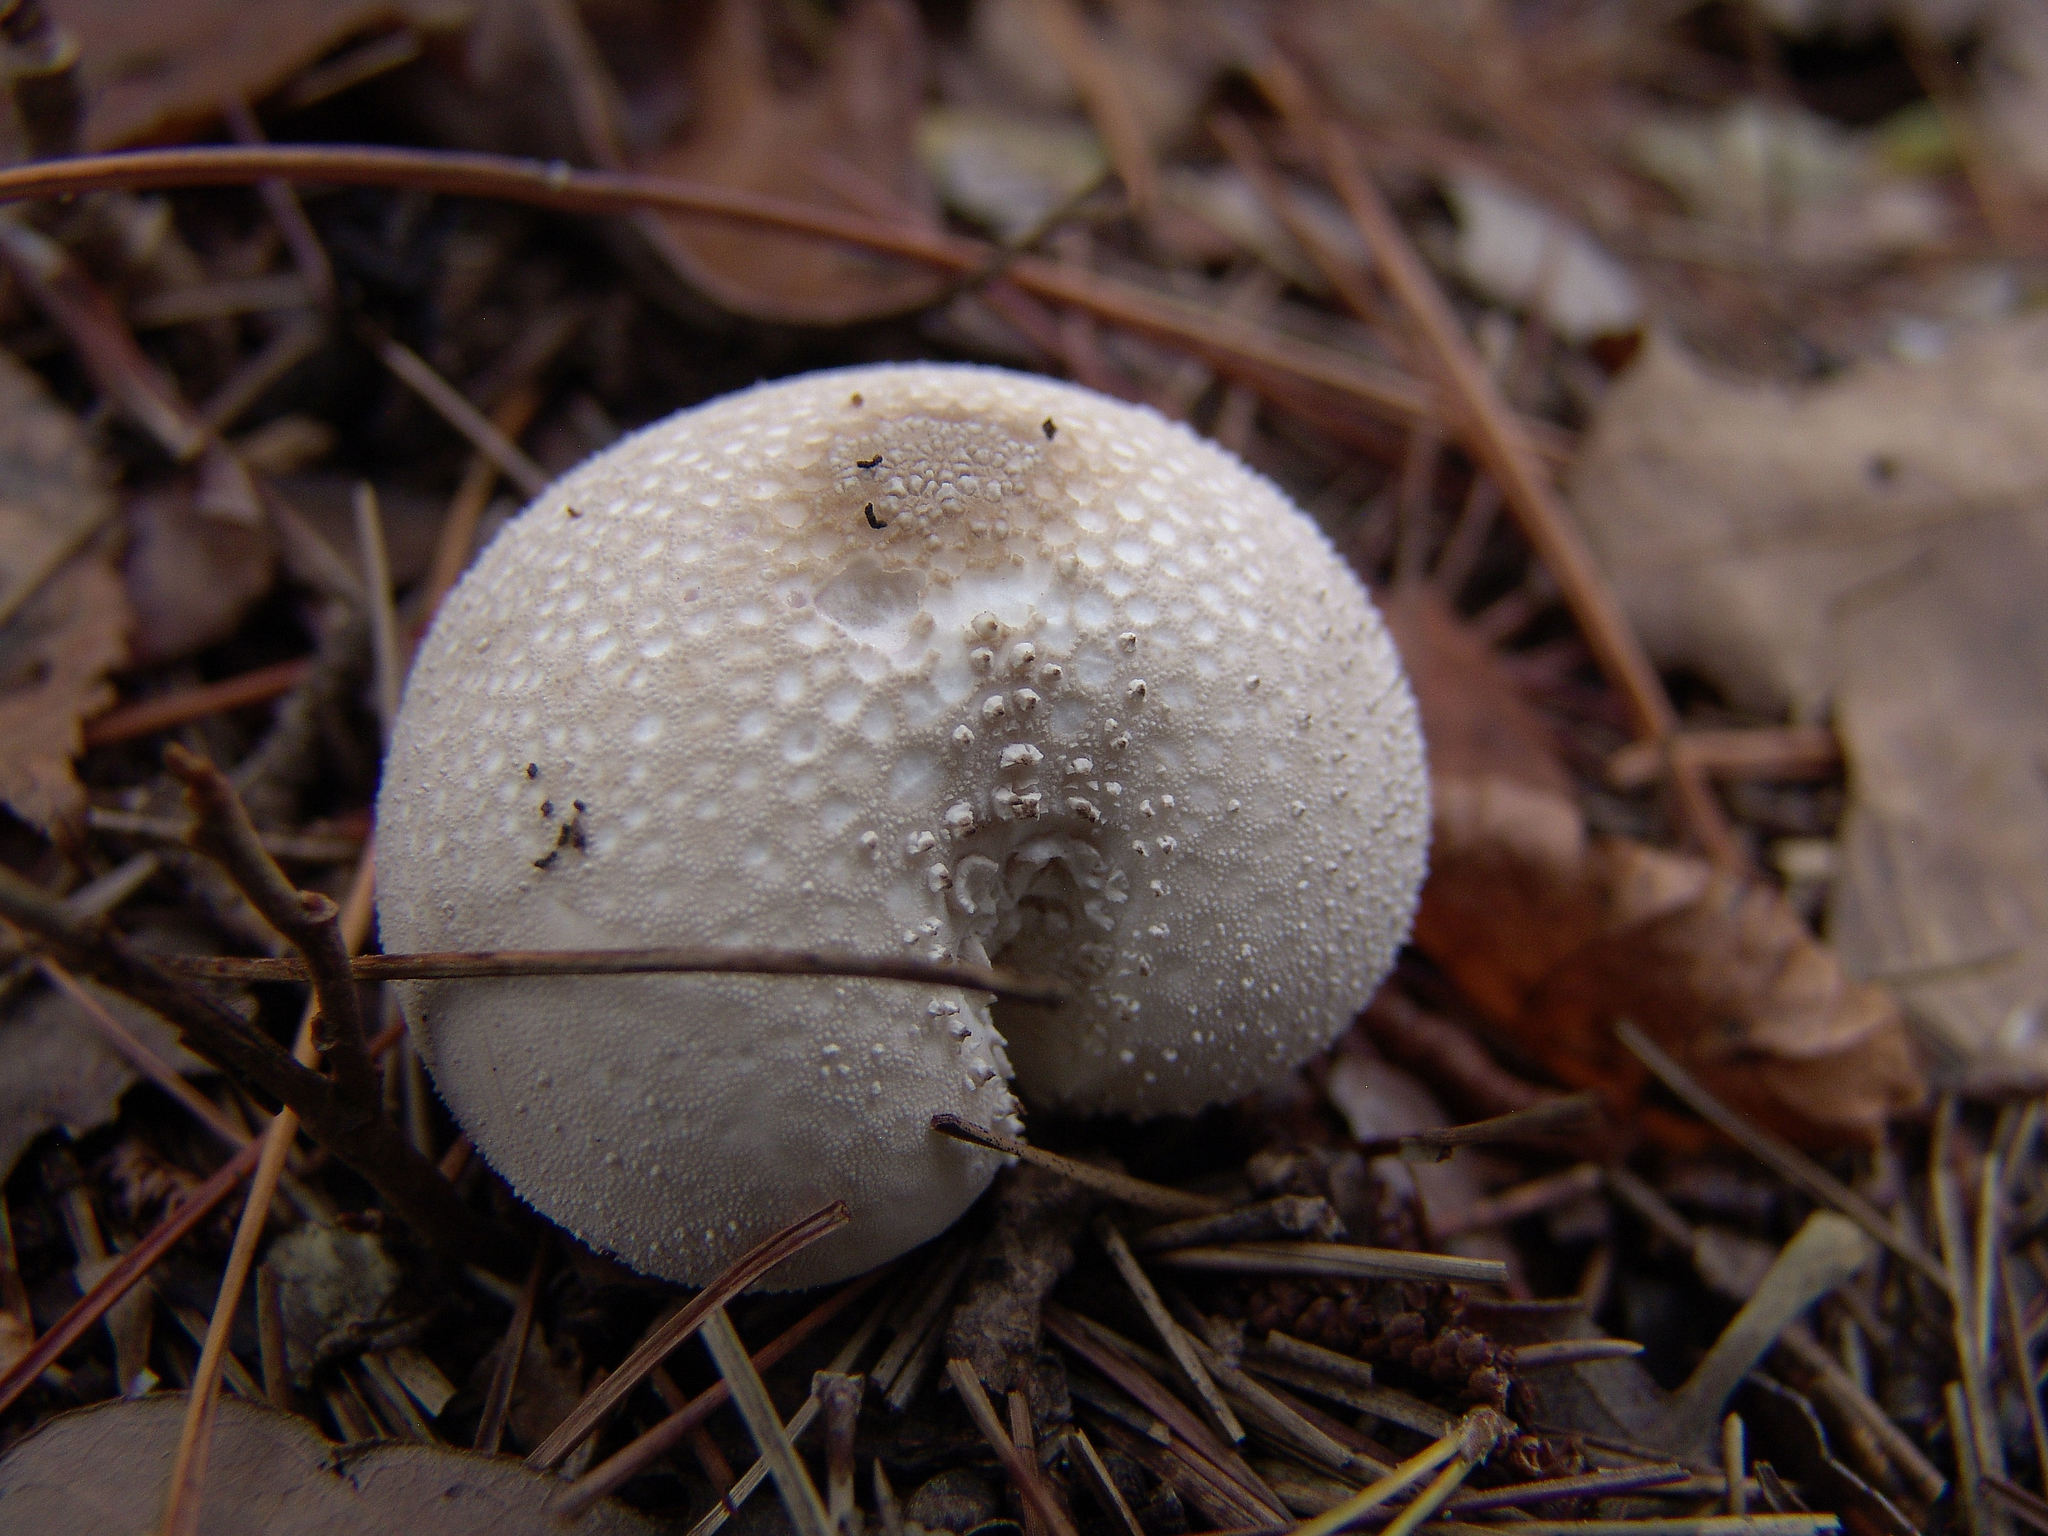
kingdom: Fungi
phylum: Basidiomycota
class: Agaricomycetes
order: Agaricales
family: Lycoperdaceae
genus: Lycoperdon
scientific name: Lycoperdon perlatum
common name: Common puffball
